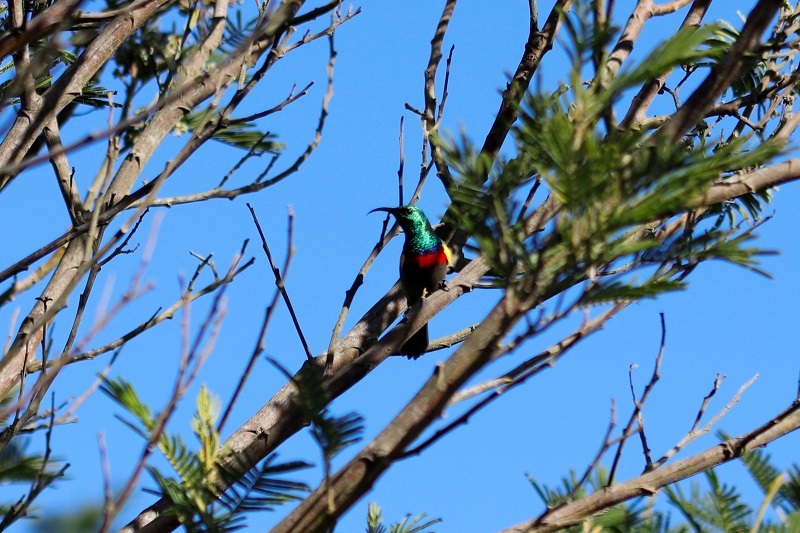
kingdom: Animalia
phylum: Chordata
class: Aves
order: Passeriformes
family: Nectariniidae
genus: Cinnyris
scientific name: Cinnyris chalybeus
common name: Southern double-collared sunbird
